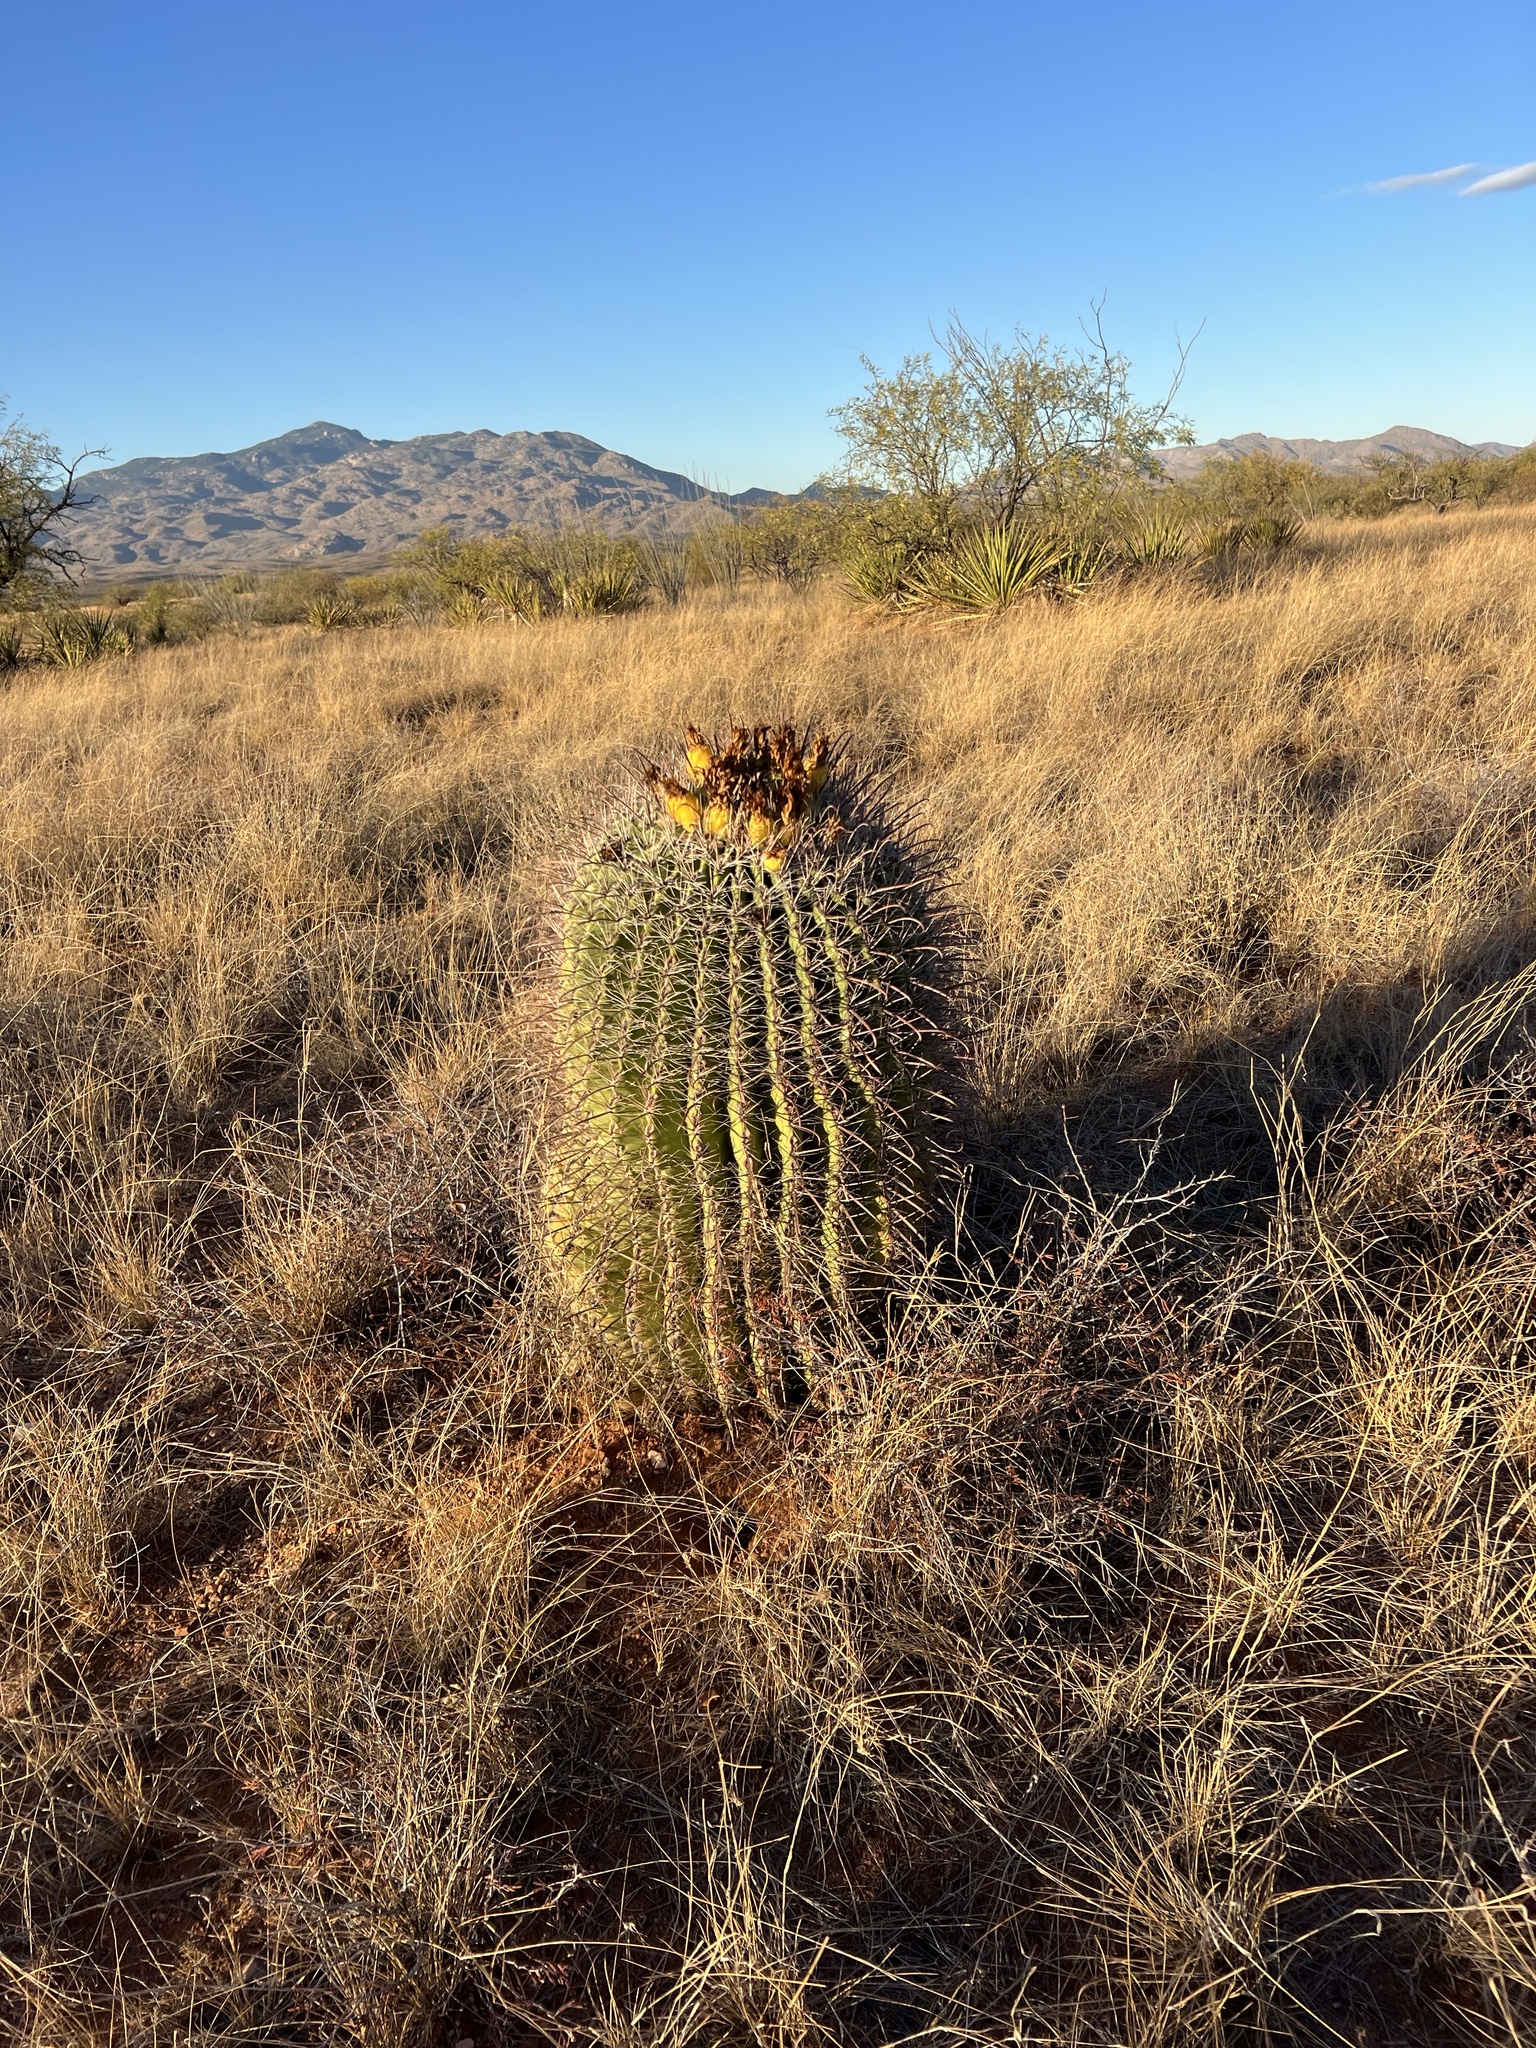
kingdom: Plantae
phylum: Tracheophyta
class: Magnoliopsida
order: Caryophyllales
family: Cactaceae
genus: Ferocactus
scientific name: Ferocactus wislizeni
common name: Candy barrel cactus
